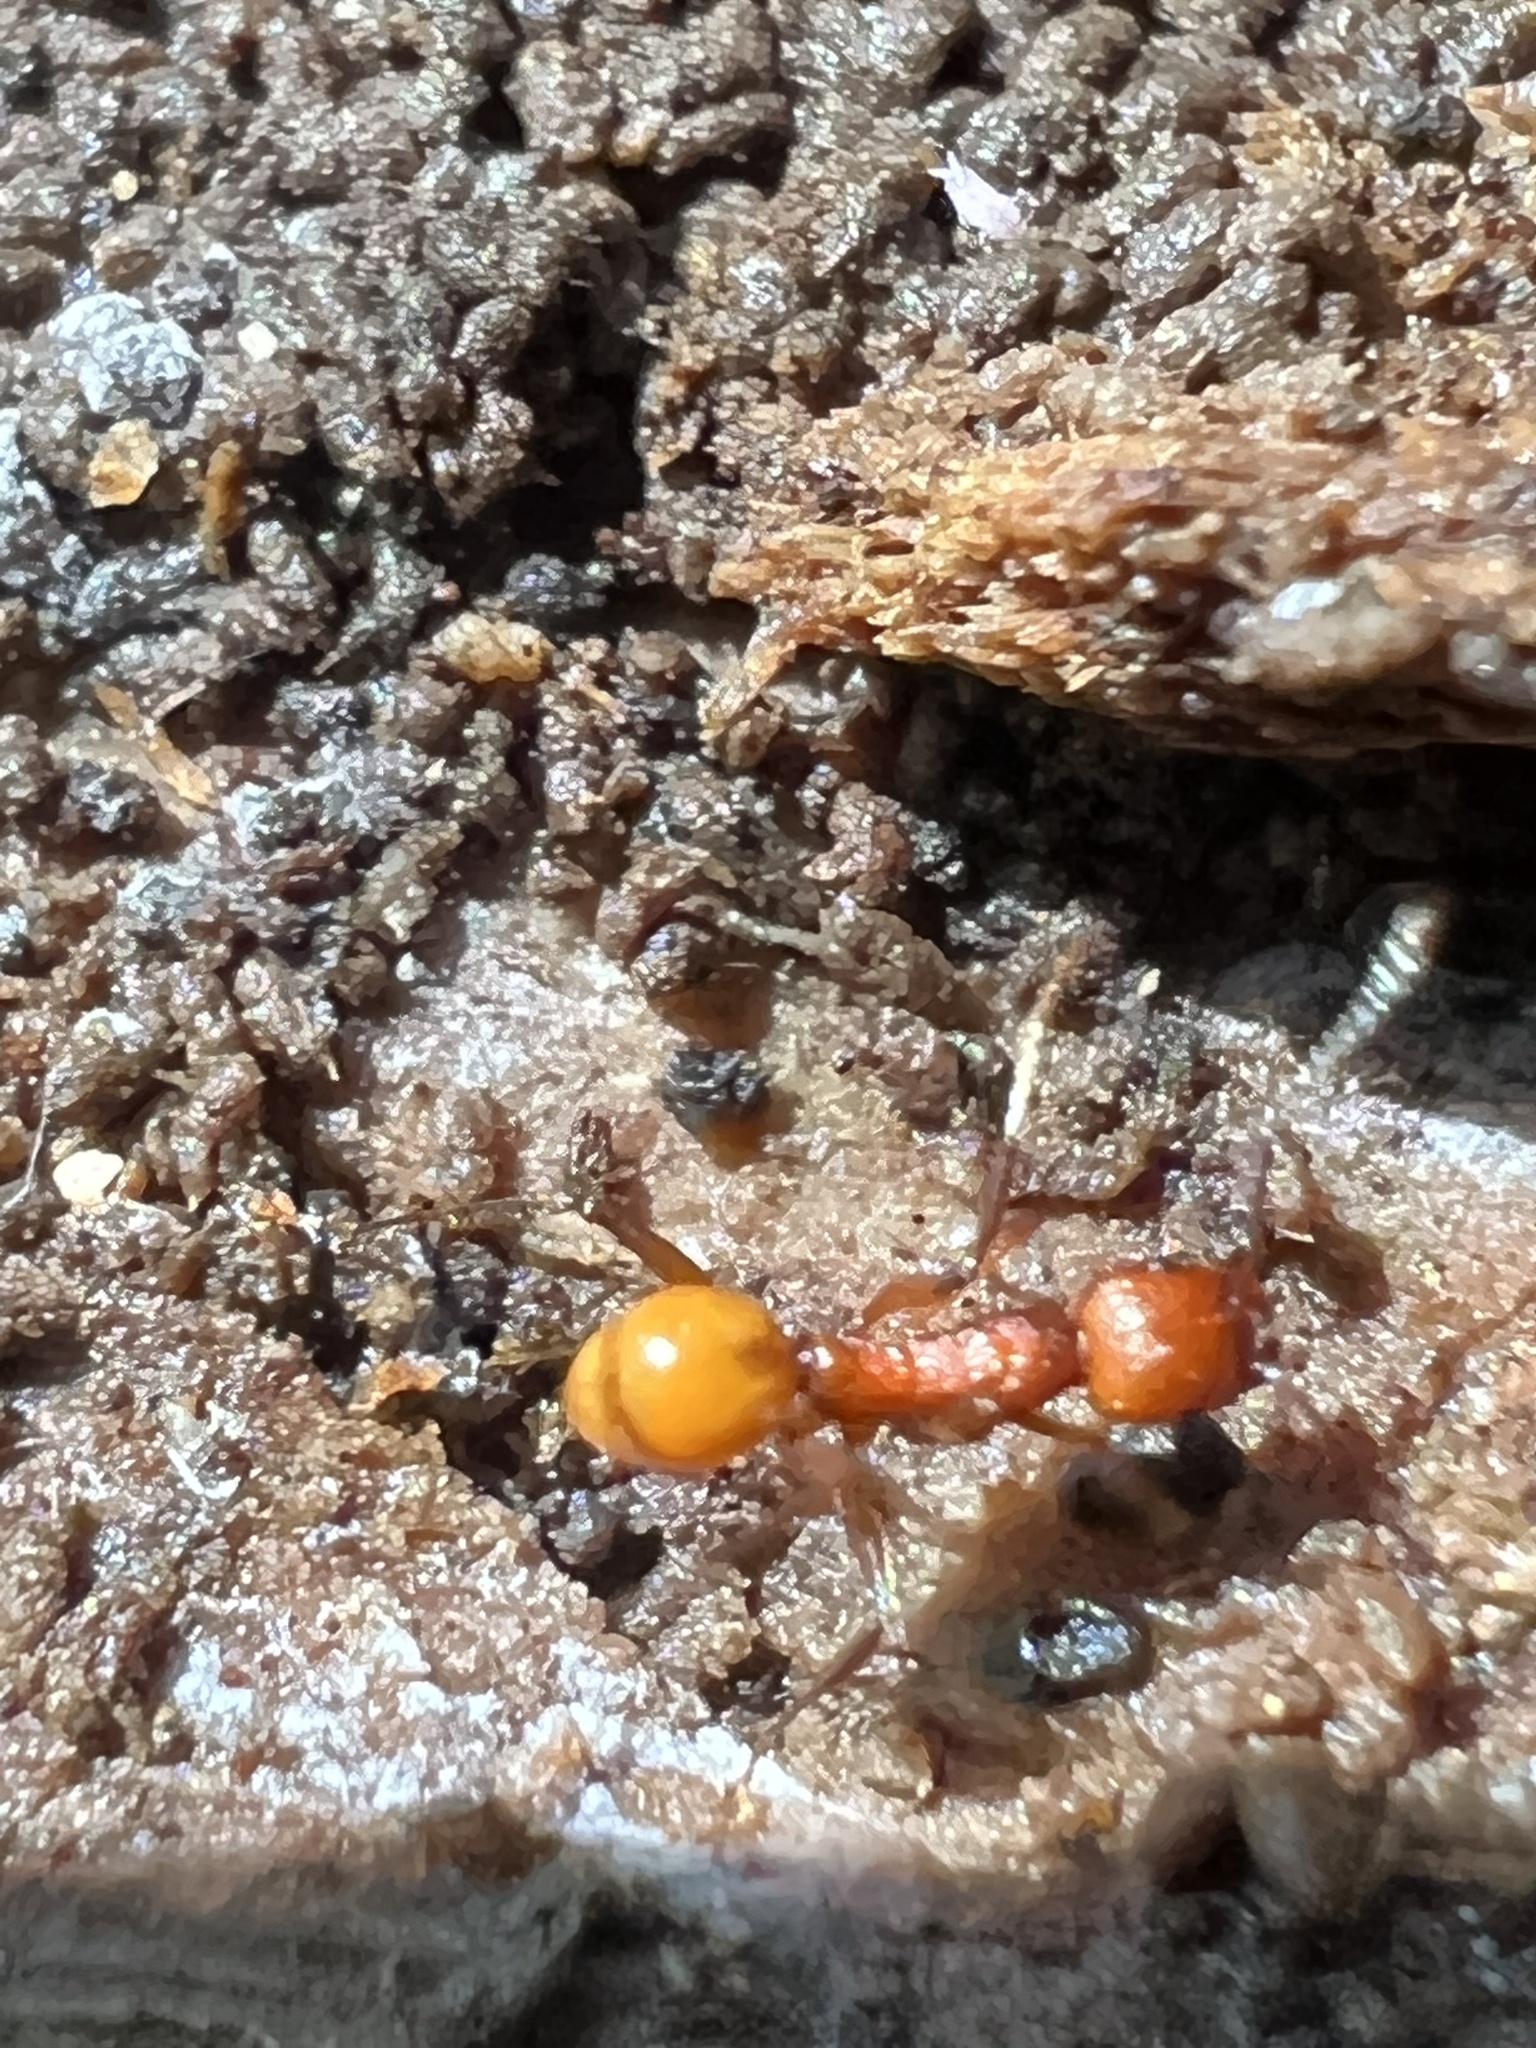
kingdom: Animalia
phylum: Arthropoda
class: Insecta
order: Hymenoptera
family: Formicidae
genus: Aphaenogaster
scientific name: Aphaenogaster tennesseensis
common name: Tennessee thread-waisted ant
